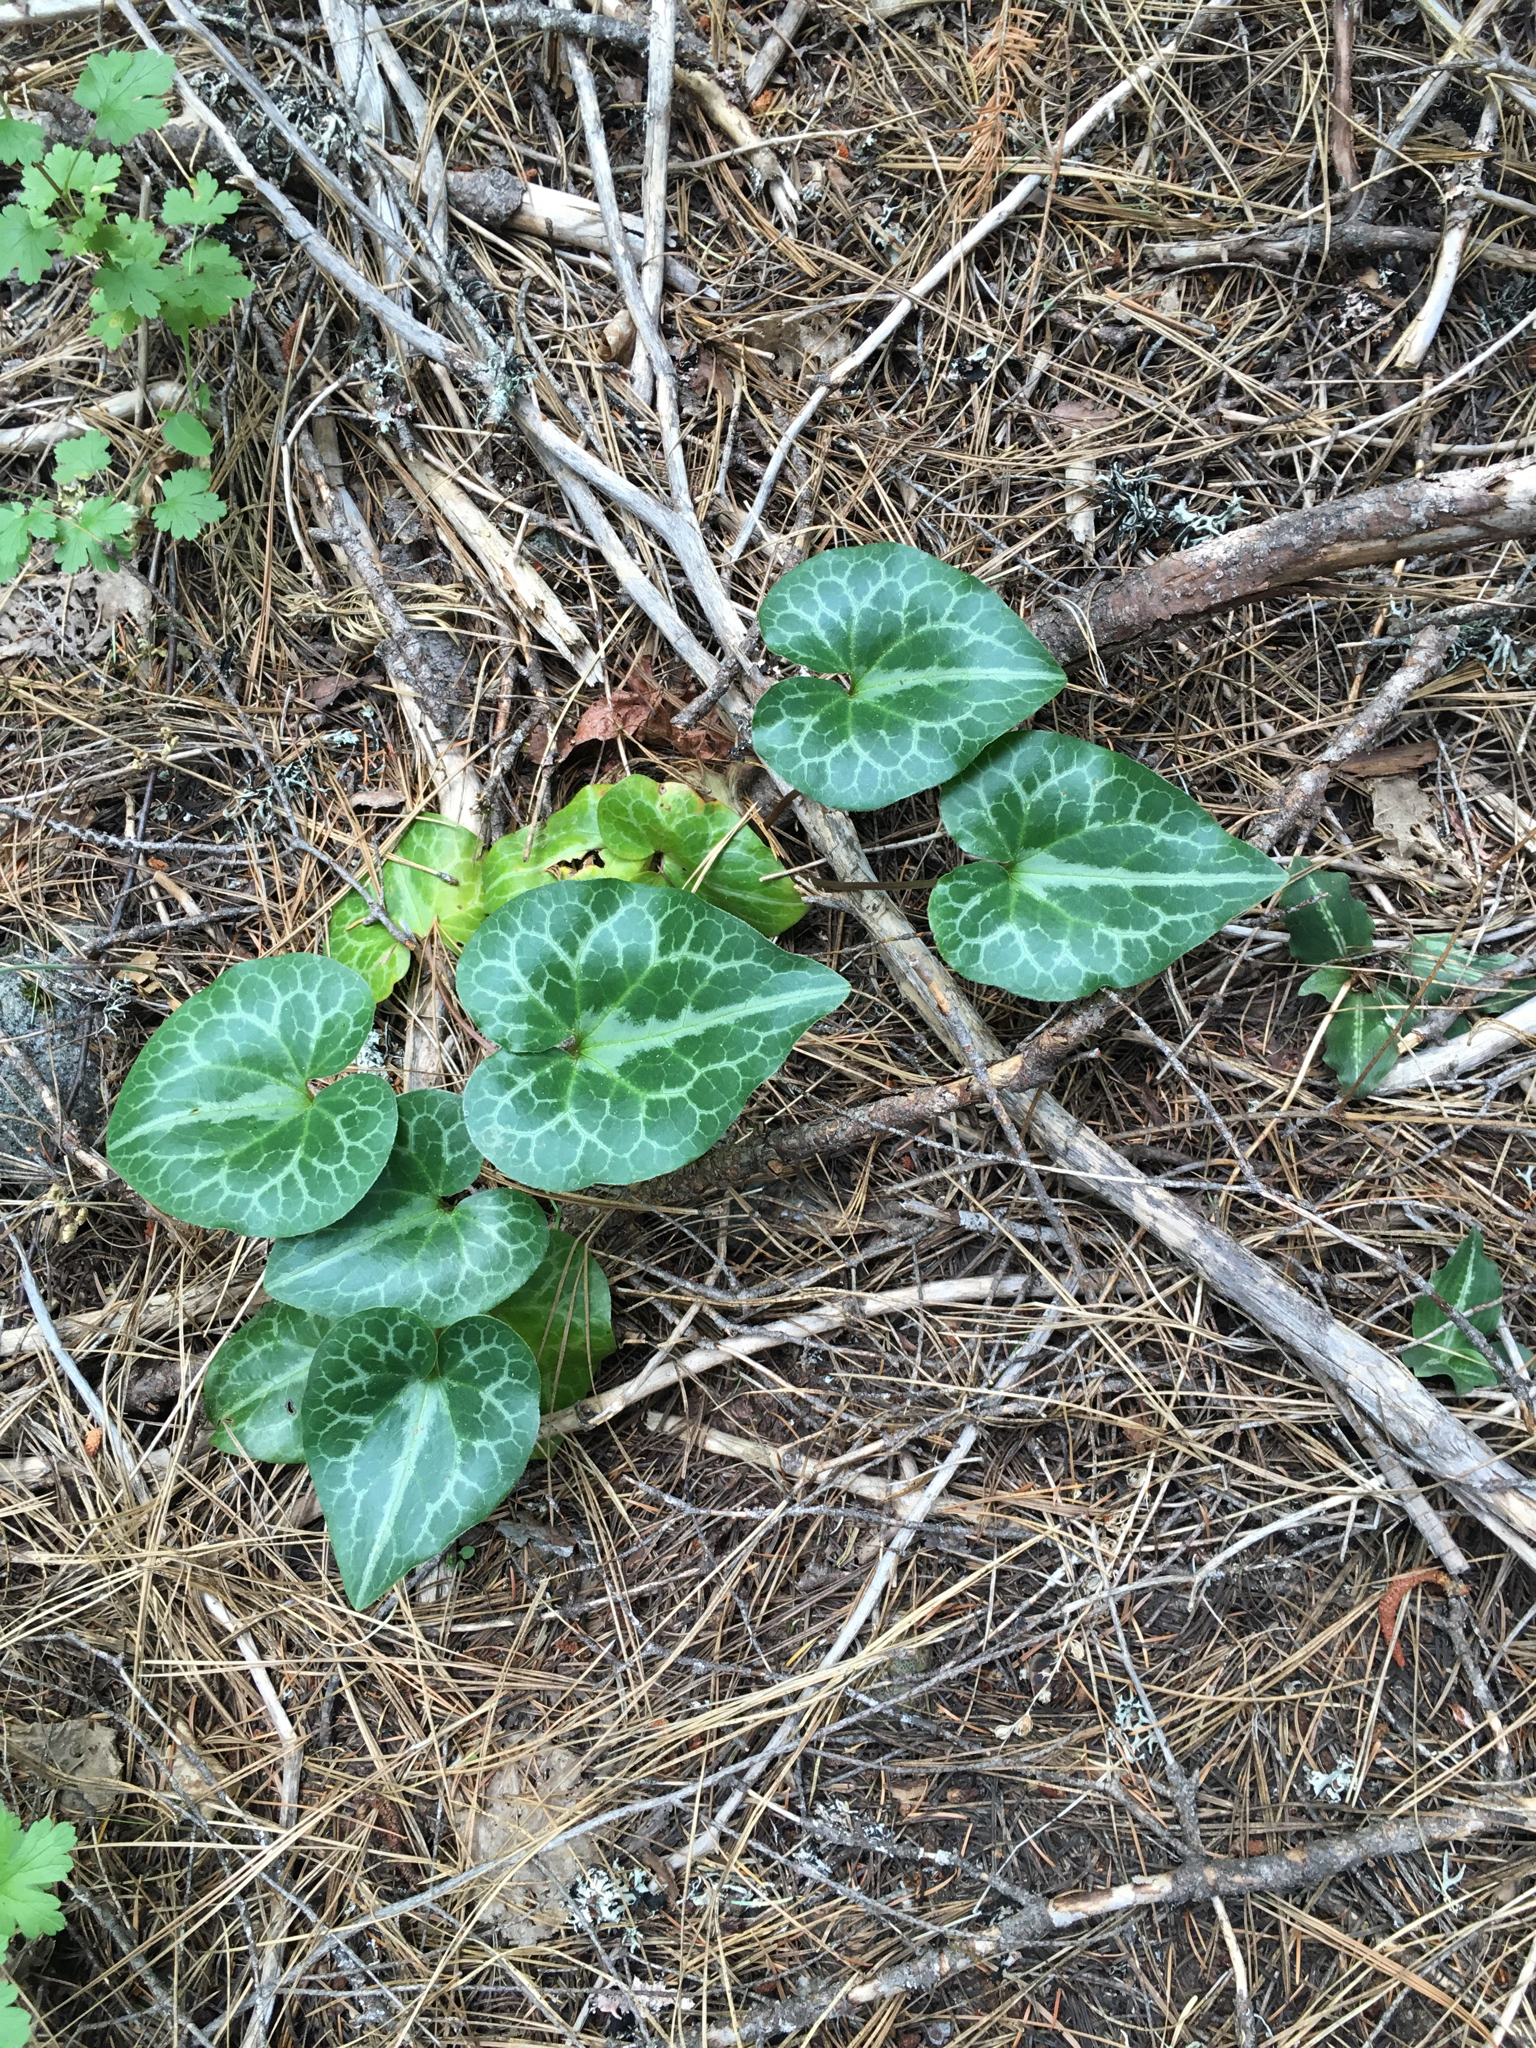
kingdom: Plantae
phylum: Tracheophyta
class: Magnoliopsida
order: Piperales
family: Aristolochiaceae
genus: Asarum
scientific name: Asarum hartwegii
